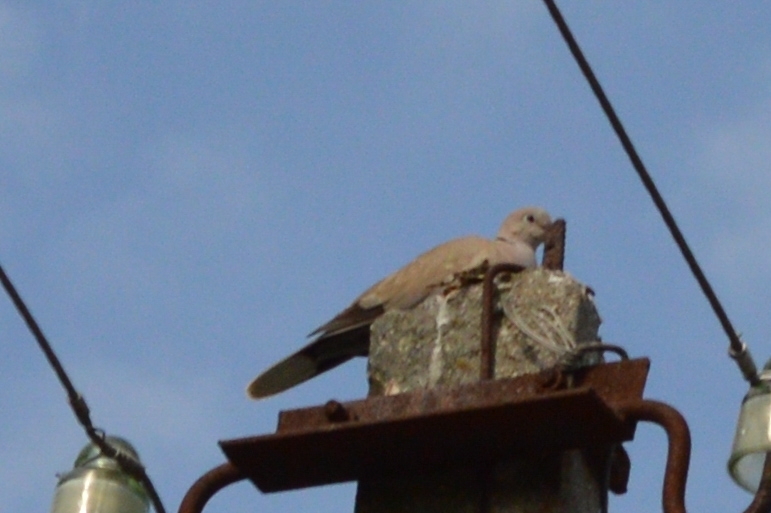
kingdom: Animalia
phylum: Chordata
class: Aves
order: Columbiformes
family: Columbidae
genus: Streptopelia
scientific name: Streptopelia decaocto
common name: Eurasian collared dove
